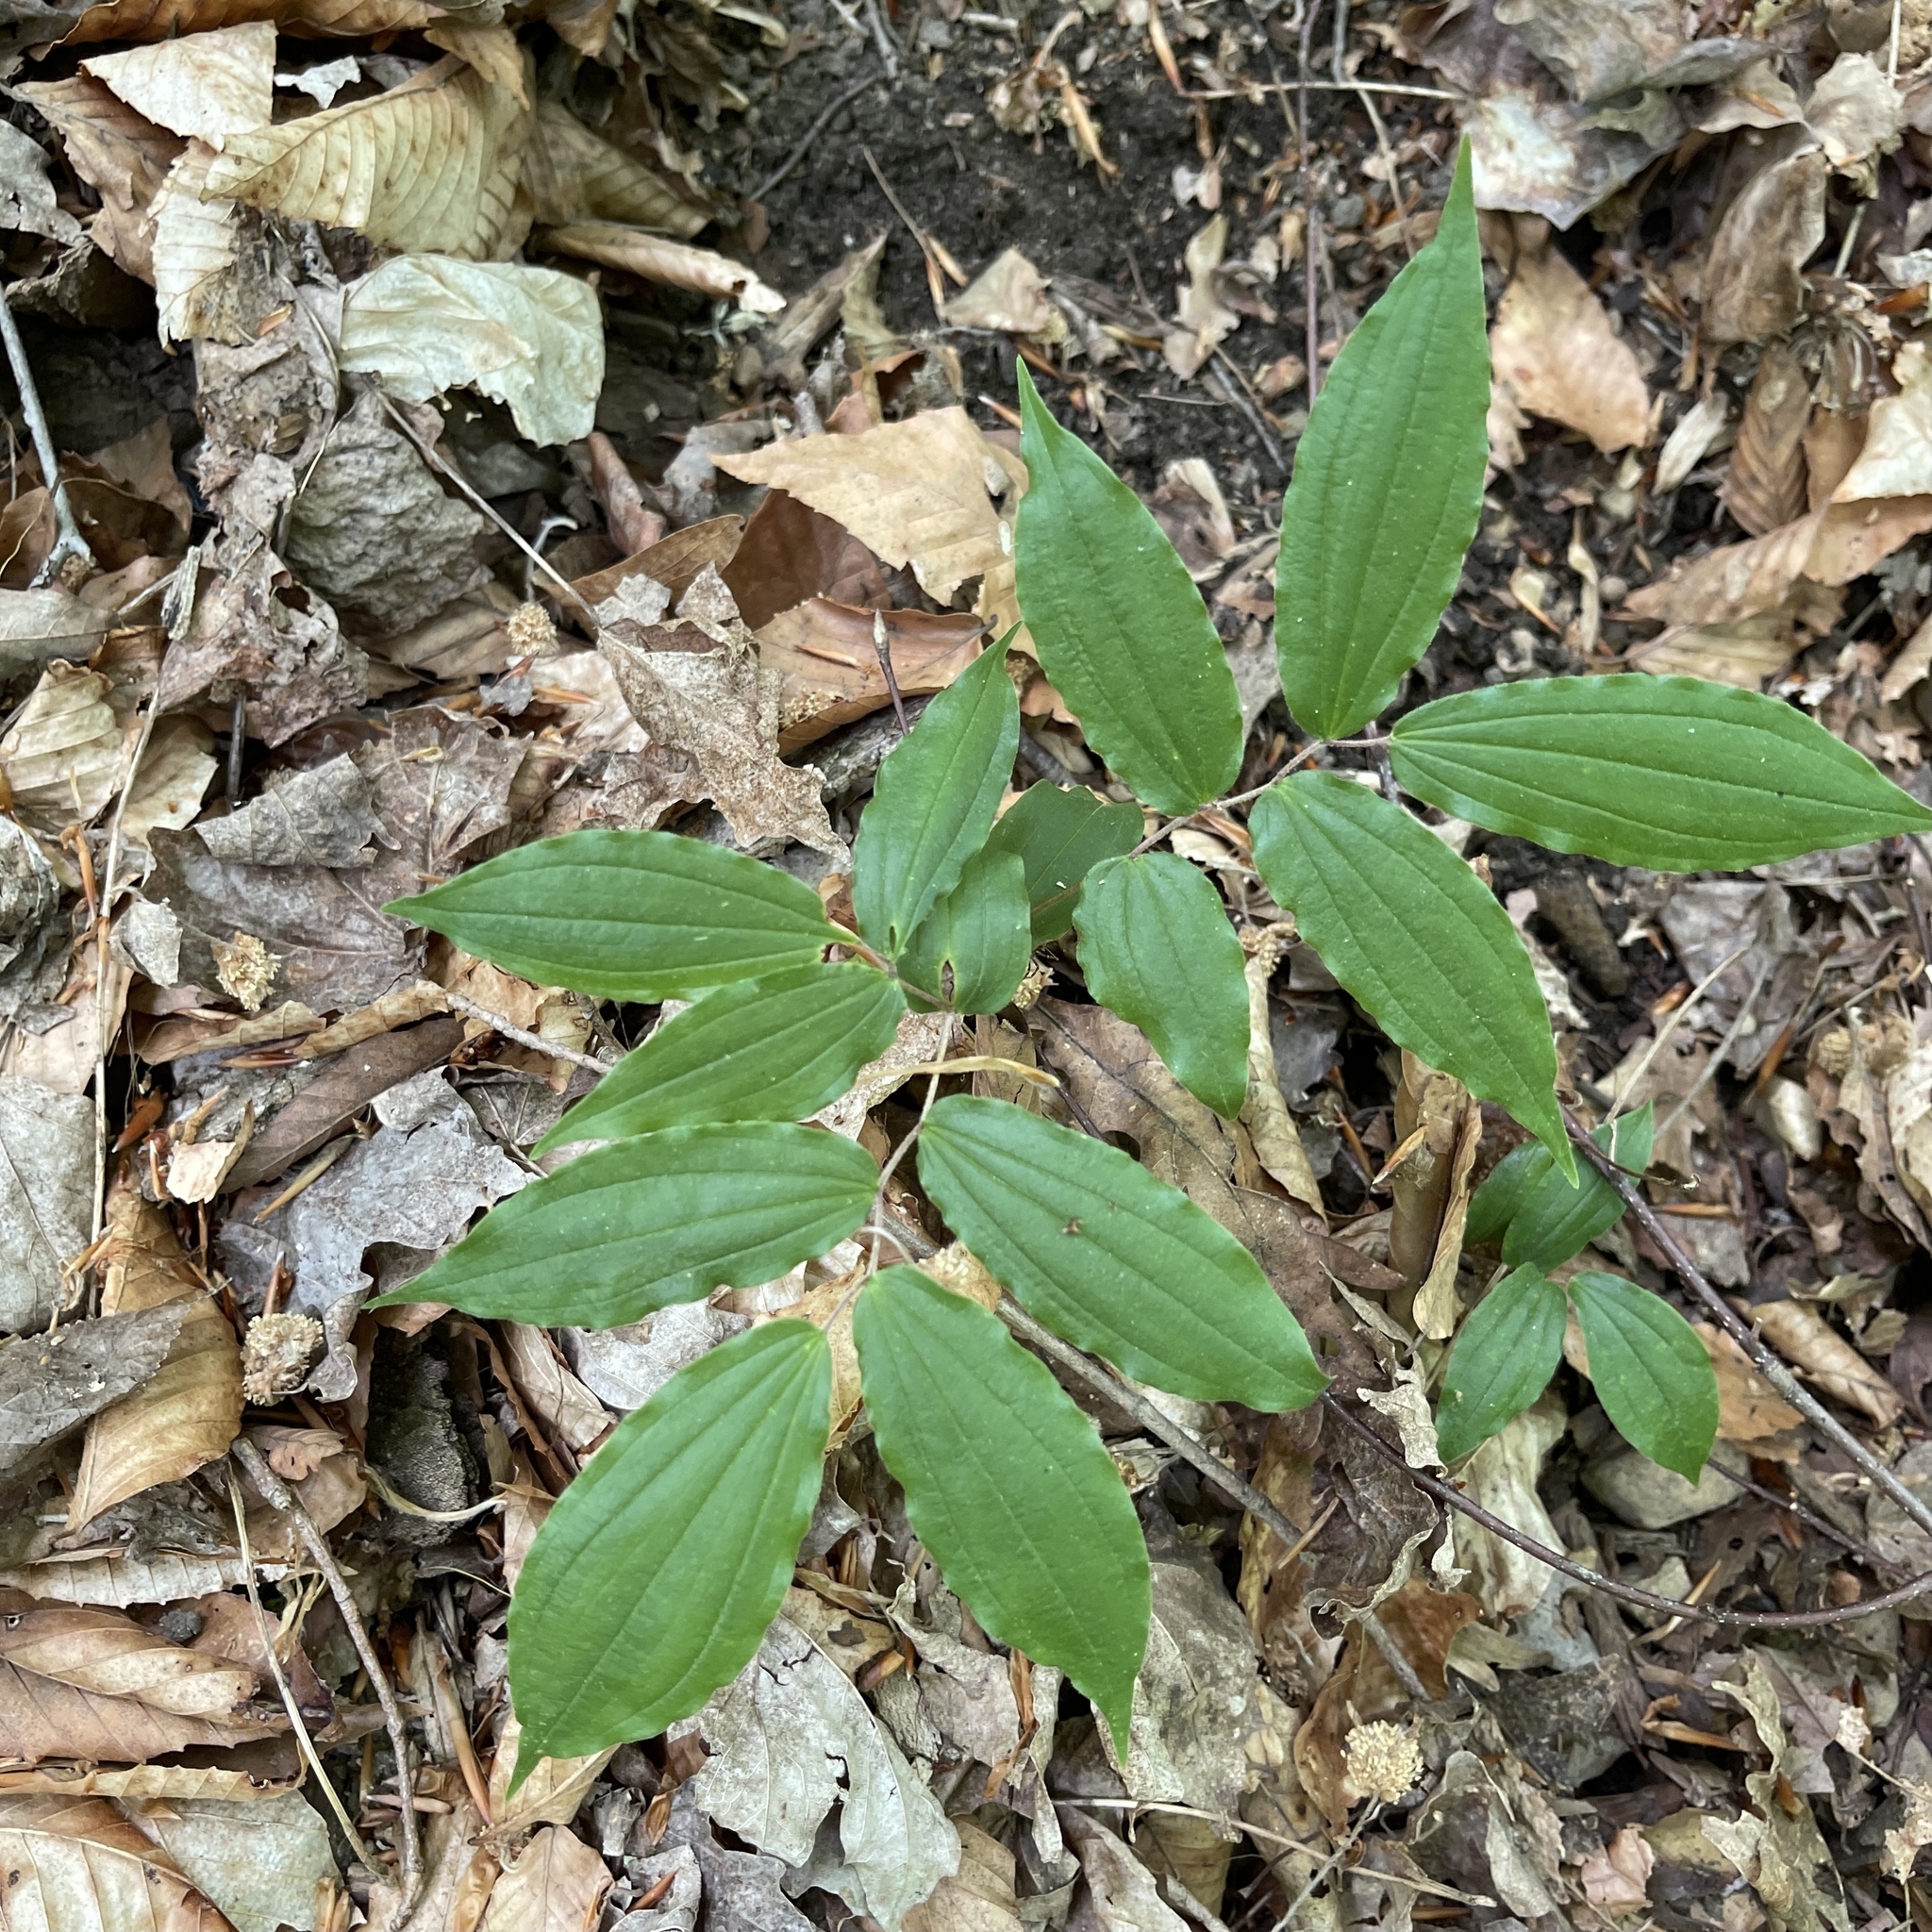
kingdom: Plantae
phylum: Tracheophyta
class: Liliopsida
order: Liliales
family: Liliaceae
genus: Prosartes
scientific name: Prosartes lanuginosa
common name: Hairy mandarin
